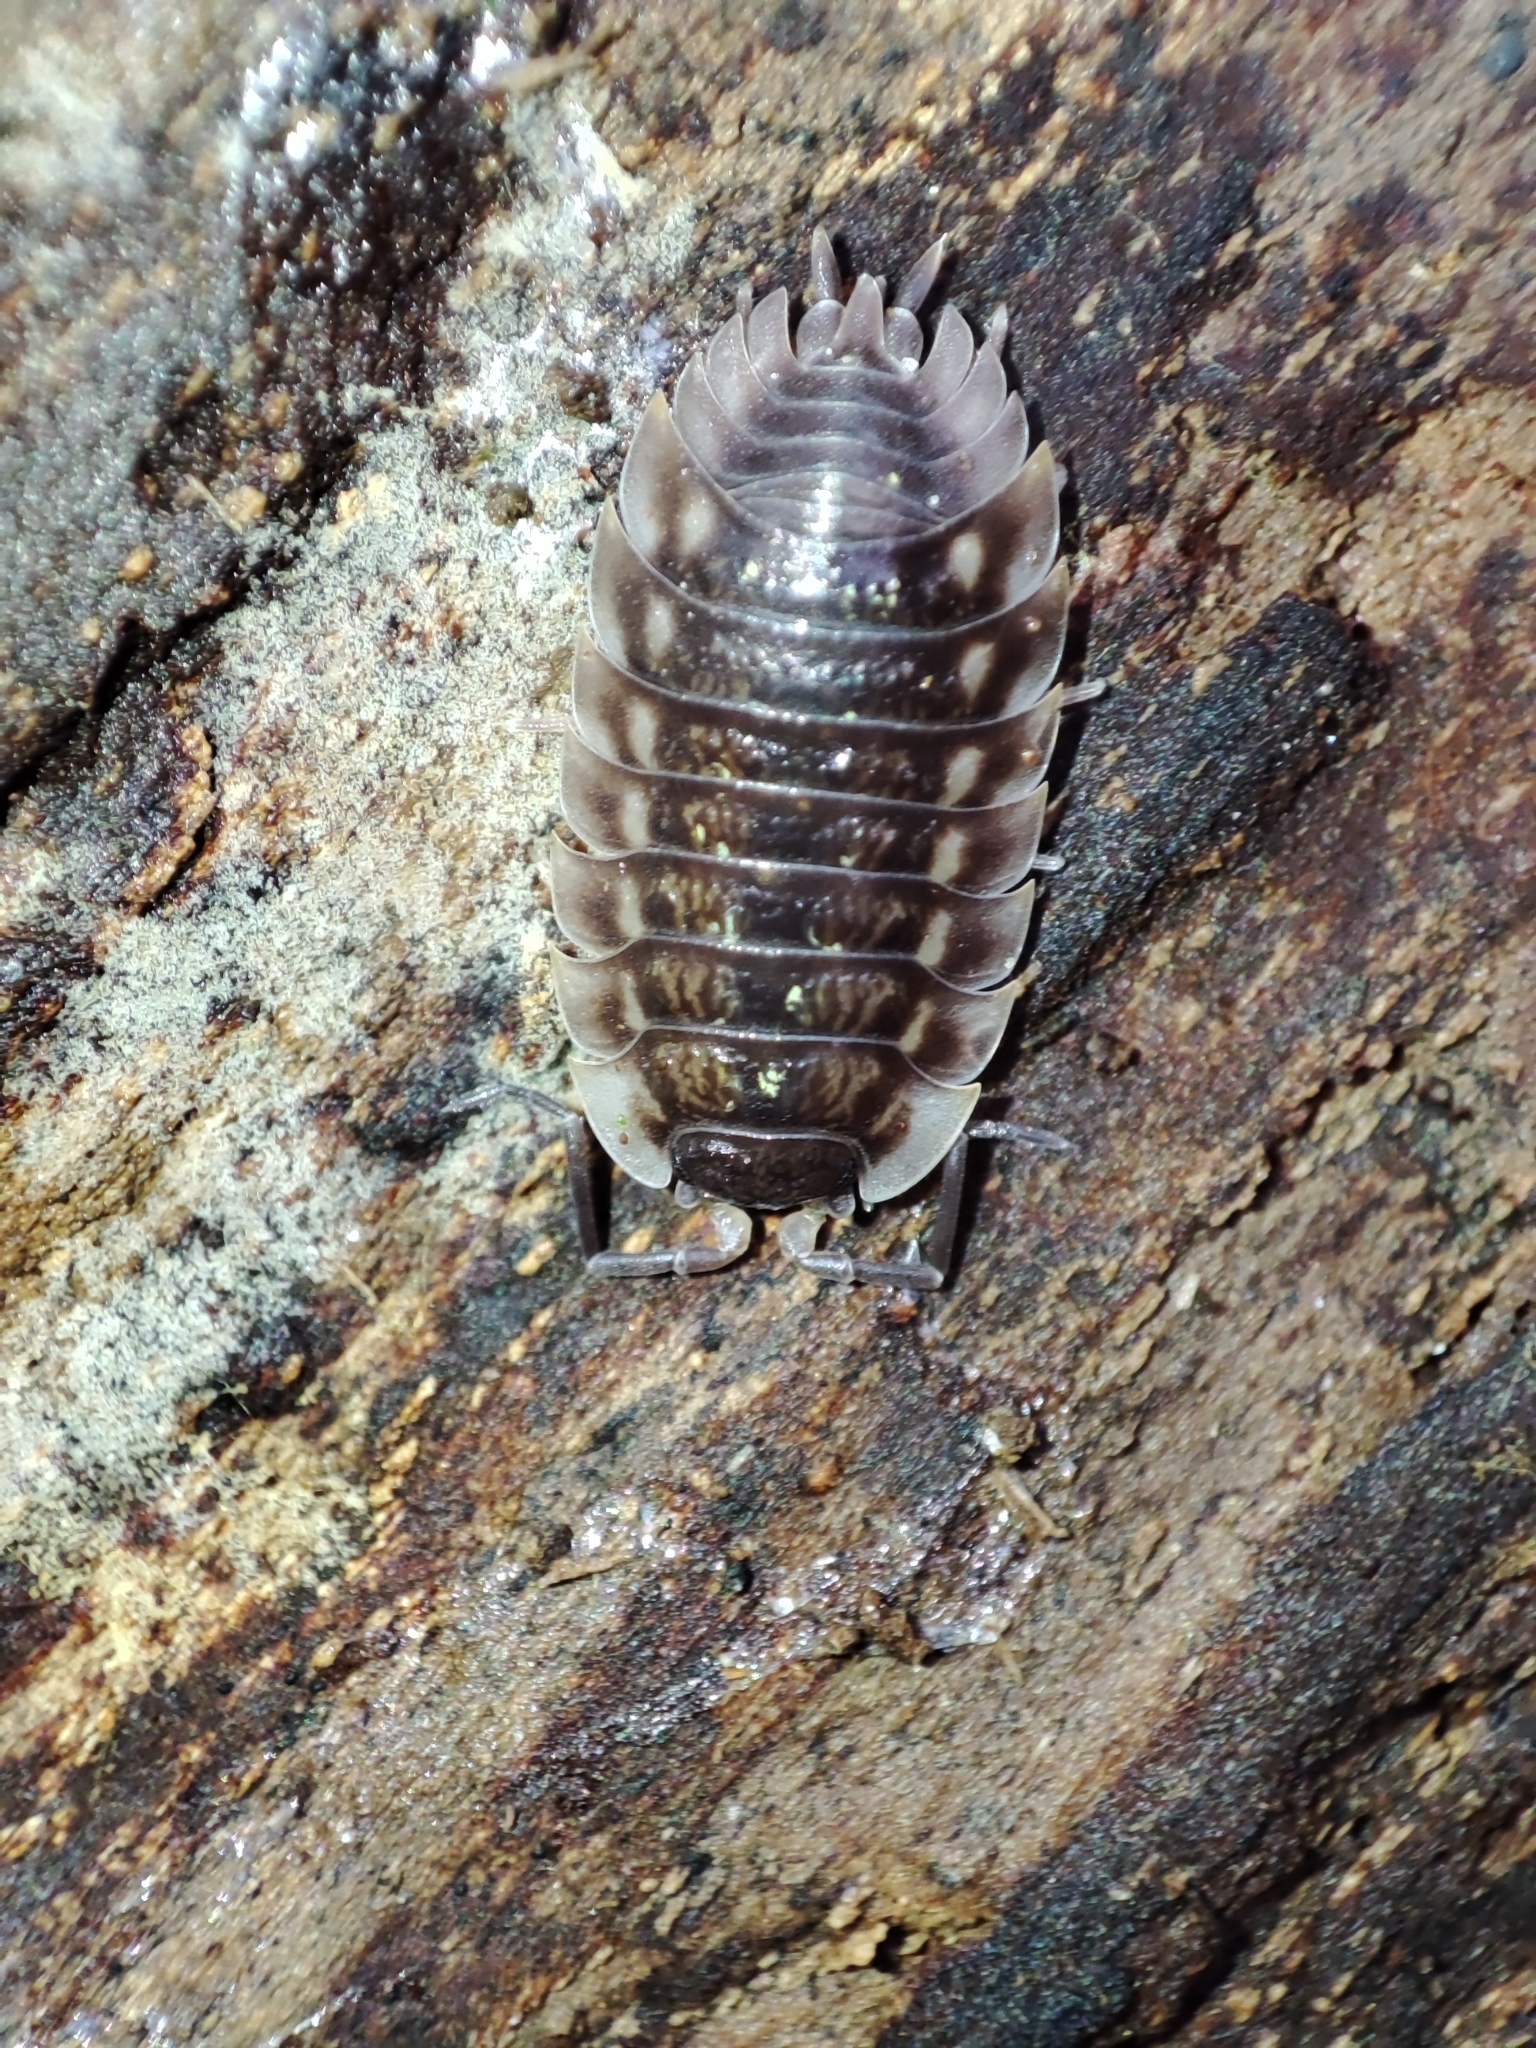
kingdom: Animalia
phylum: Arthropoda
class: Malacostraca
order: Isopoda
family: Oniscidae
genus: Oniscus
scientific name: Oniscus asellus
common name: Common shiny woodlouse
